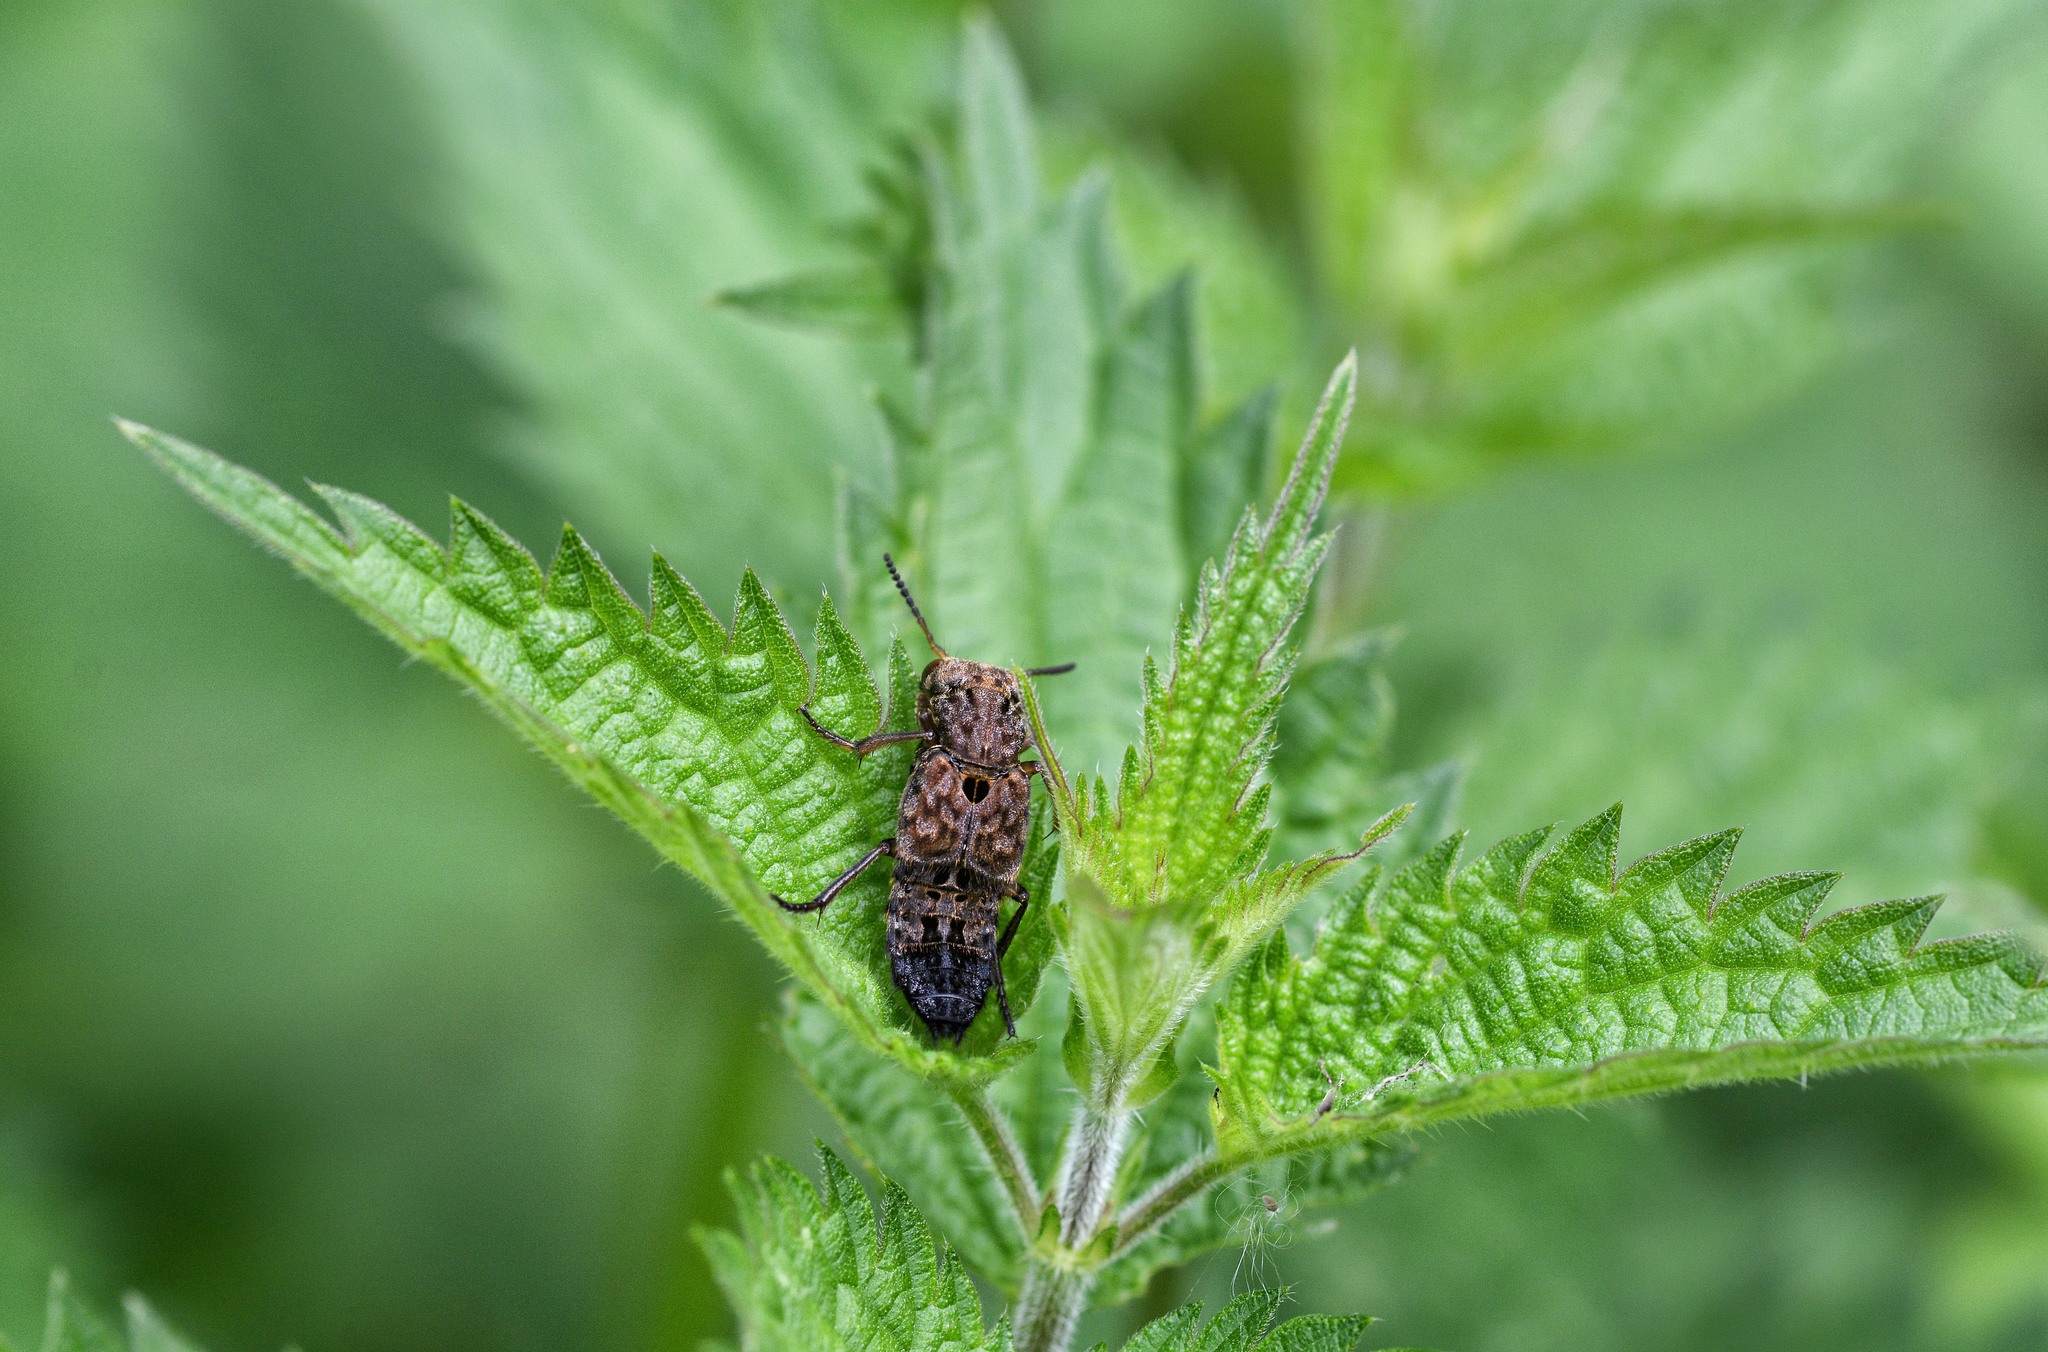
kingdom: Animalia
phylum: Arthropoda
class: Insecta
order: Coleoptera
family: Staphylinidae
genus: Ontholestes
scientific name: Ontholestes tessellatus
